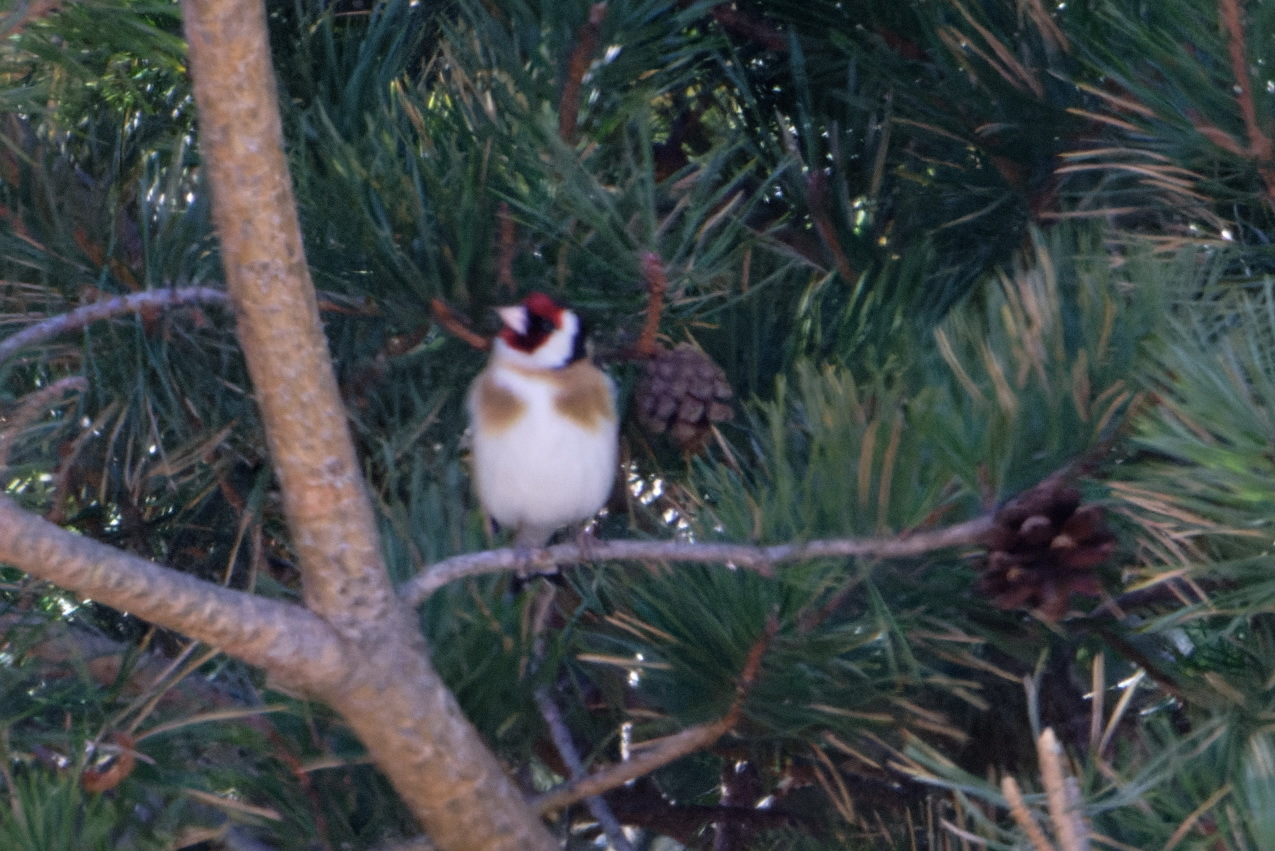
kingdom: Animalia
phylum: Chordata
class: Aves
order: Passeriformes
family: Fringillidae
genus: Carduelis
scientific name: Carduelis carduelis
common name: European goldfinch
